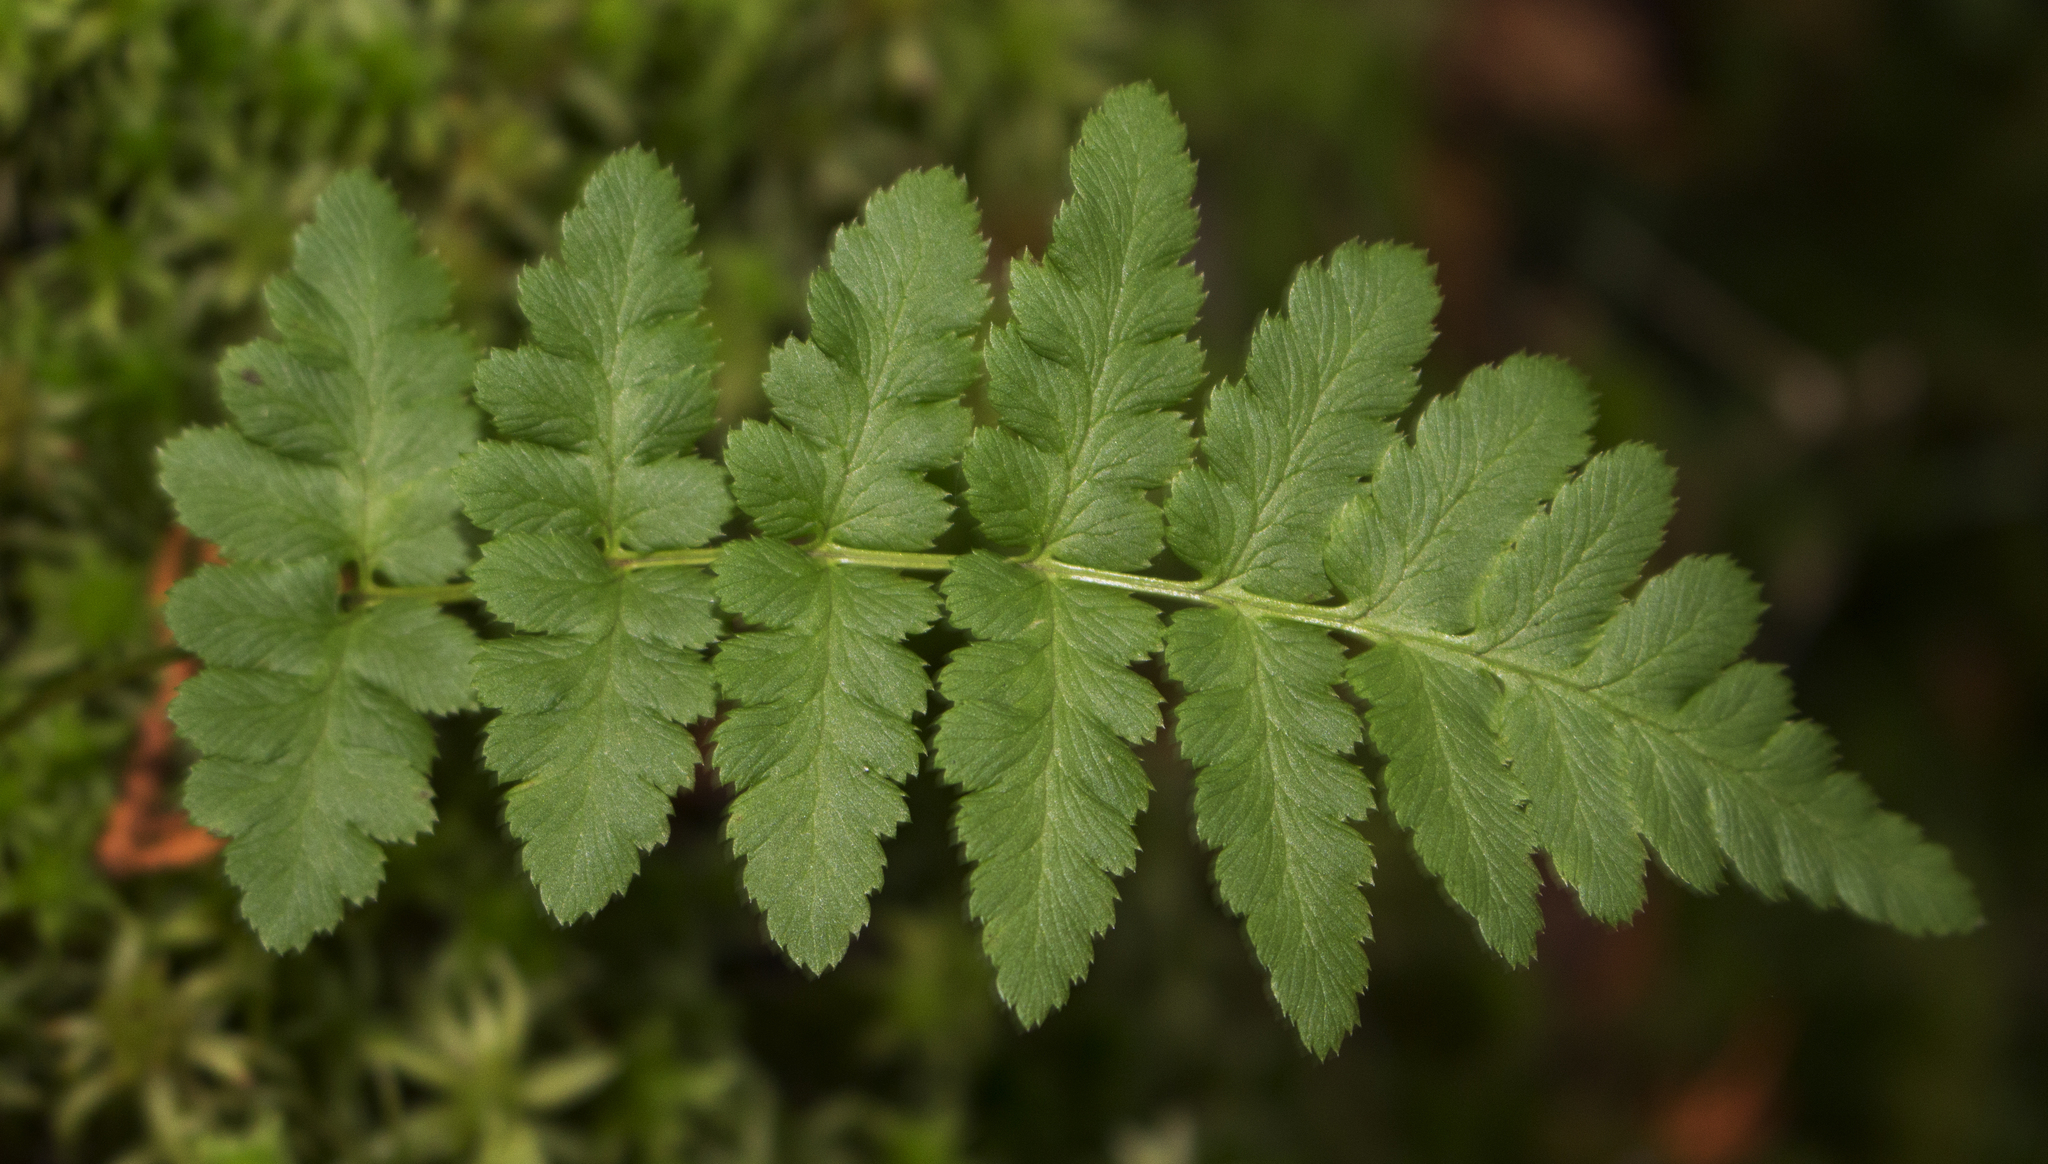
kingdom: Plantae
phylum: Tracheophyta
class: Polypodiopsida
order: Polypodiales
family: Dryopteridaceae
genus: Dryopteris
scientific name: Dryopteris cristata
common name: Crested wood fern
